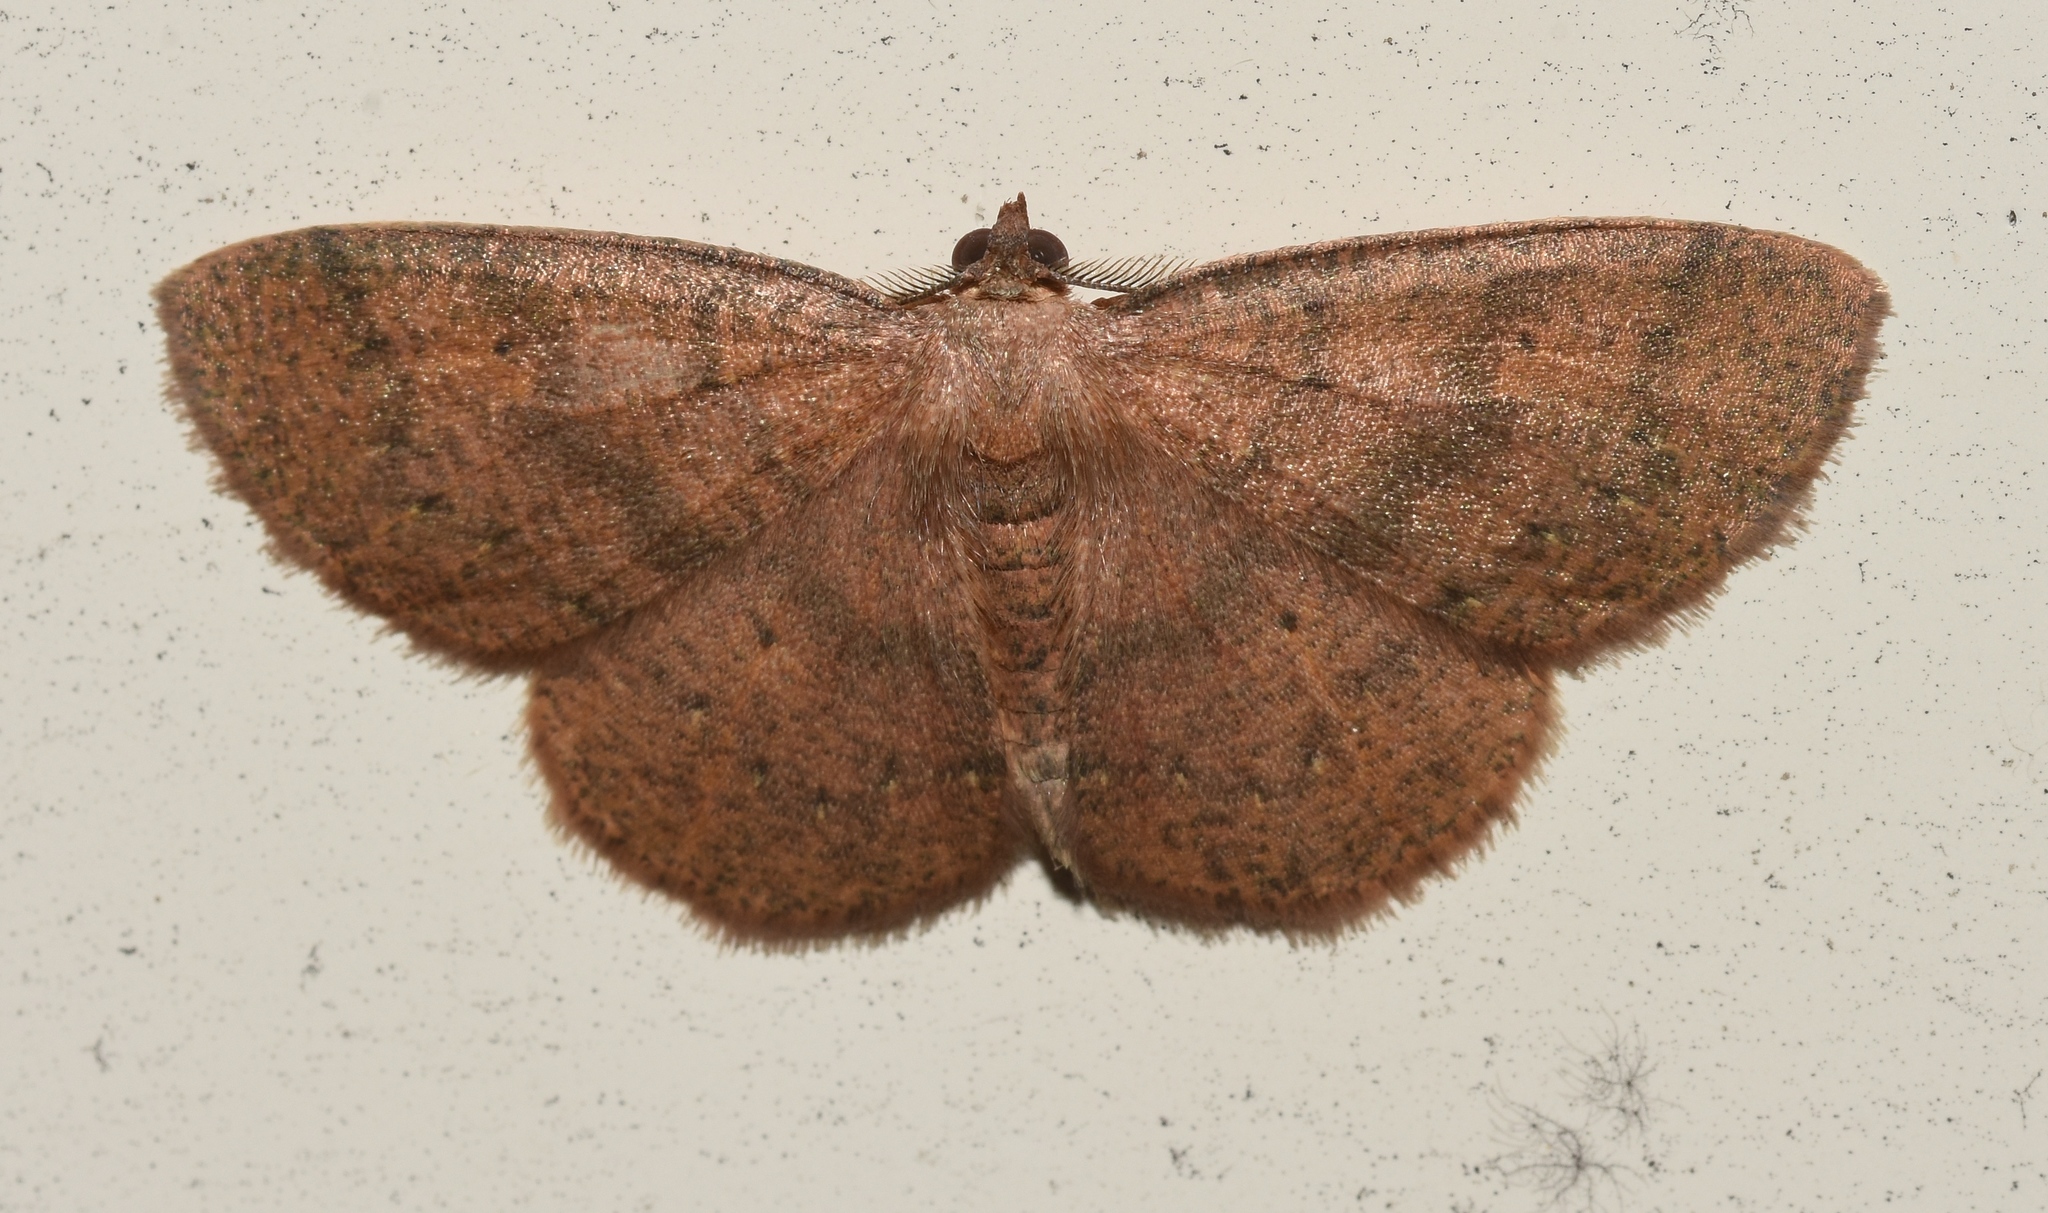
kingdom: Animalia
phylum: Arthropoda
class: Insecta
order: Lepidoptera
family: Geometridae
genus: Ilexia
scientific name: Ilexia intractata
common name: Black-dotted ruddy moth
